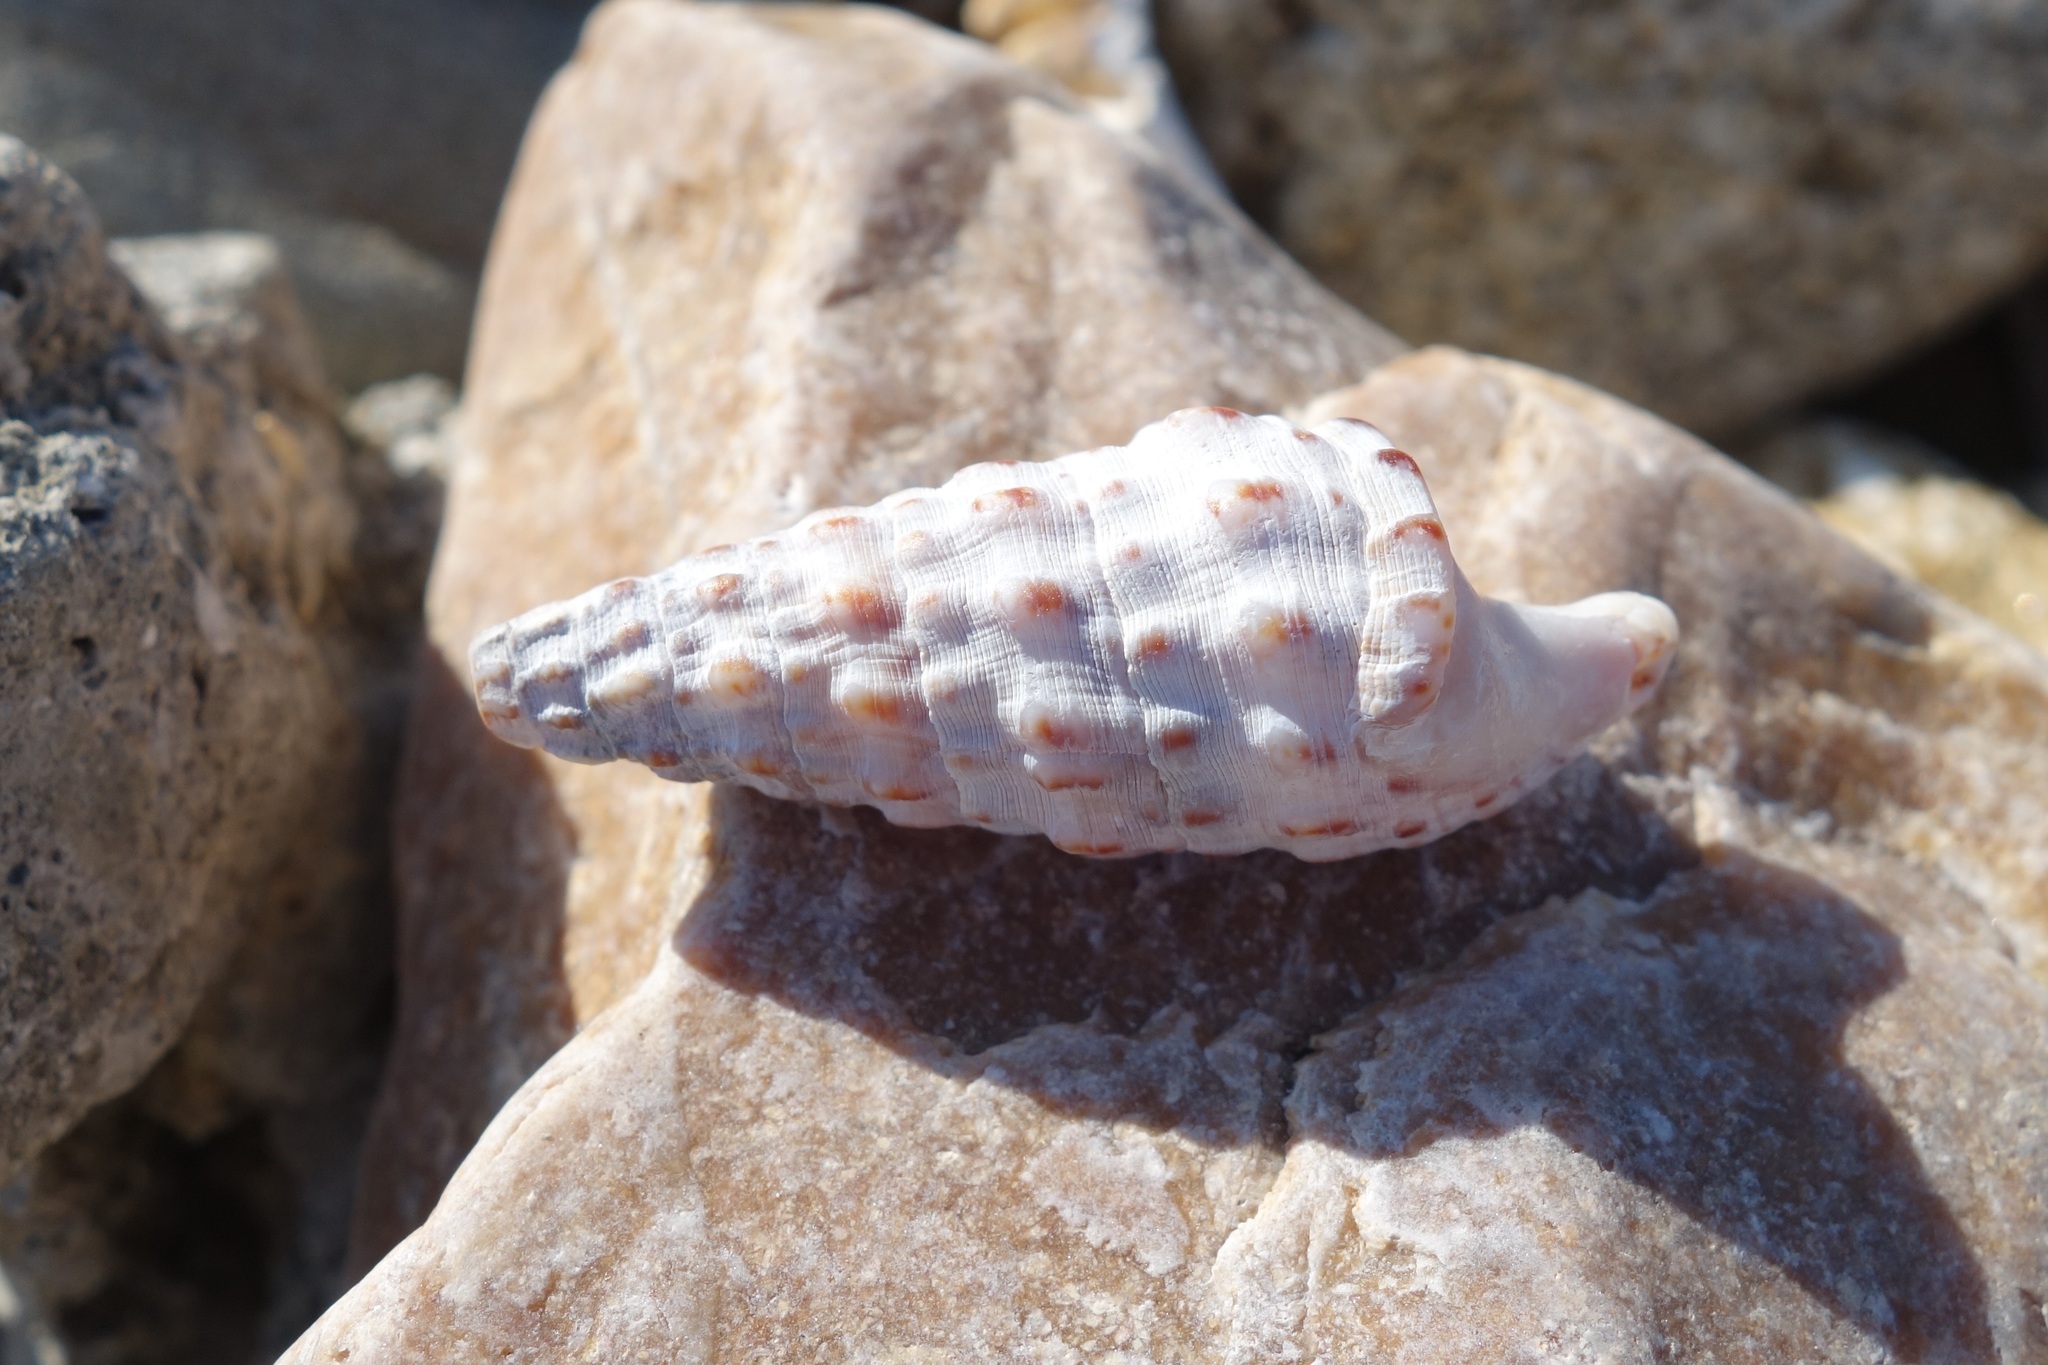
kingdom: Animalia
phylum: Mollusca
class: Gastropoda
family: Cerithiidae
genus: Cerithium
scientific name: Cerithium vulgatum
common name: European cerith
